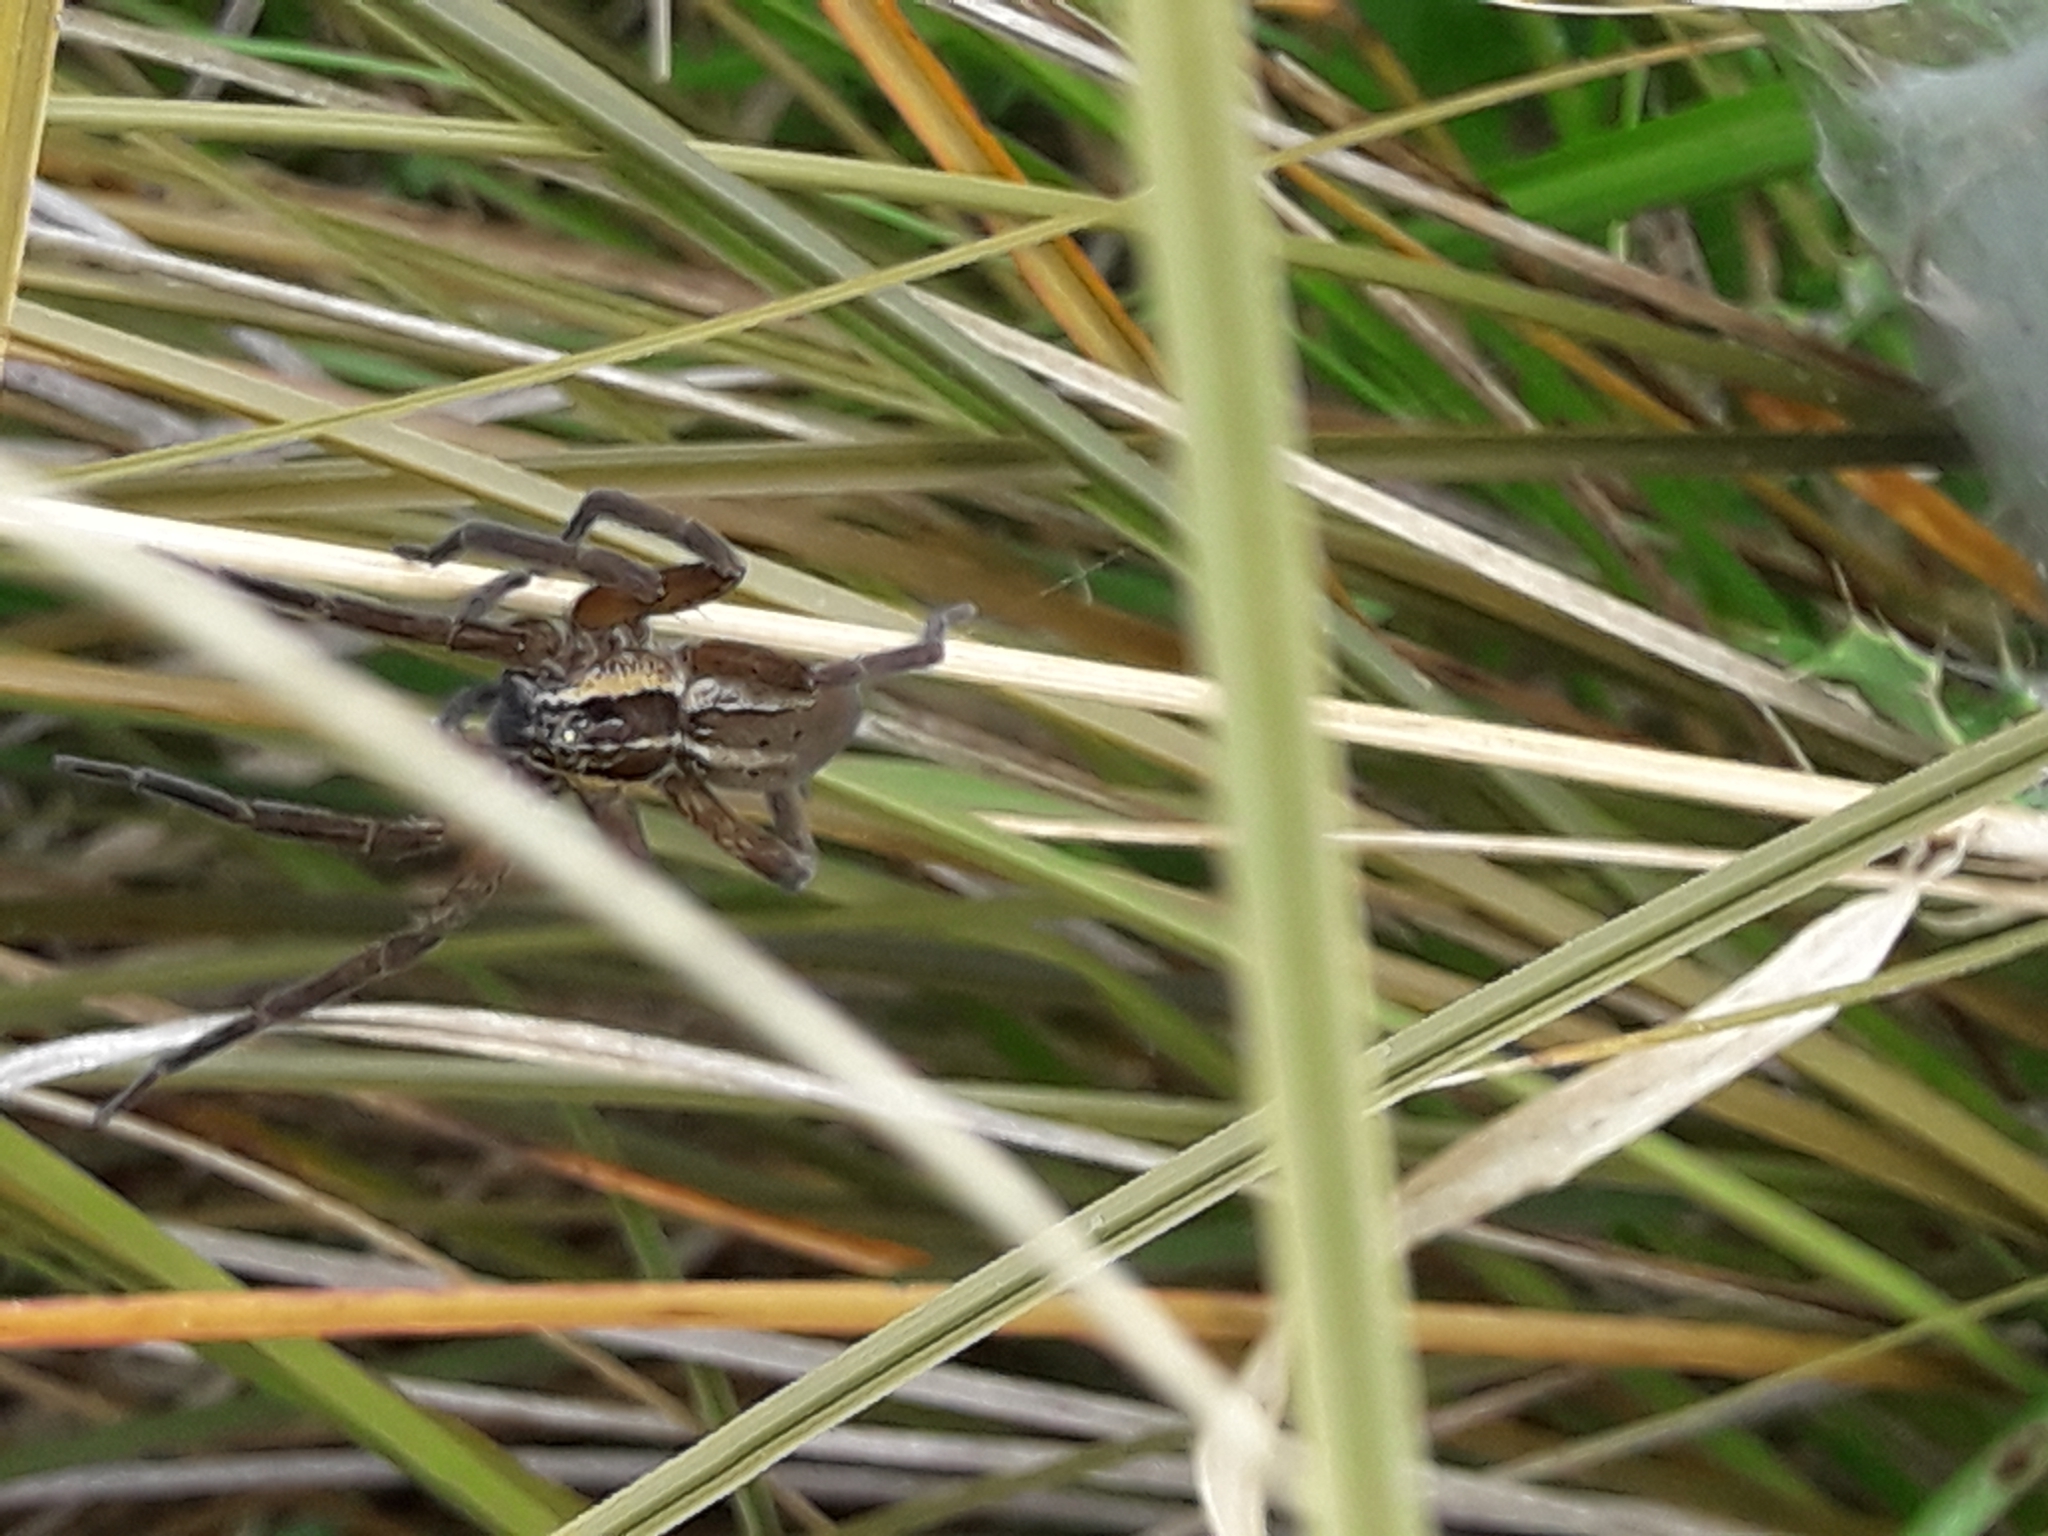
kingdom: Animalia
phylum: Arthropoda
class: Arachnida
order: Araneae
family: Pisauridae
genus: Dolomedes
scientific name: Dolomedes minor
